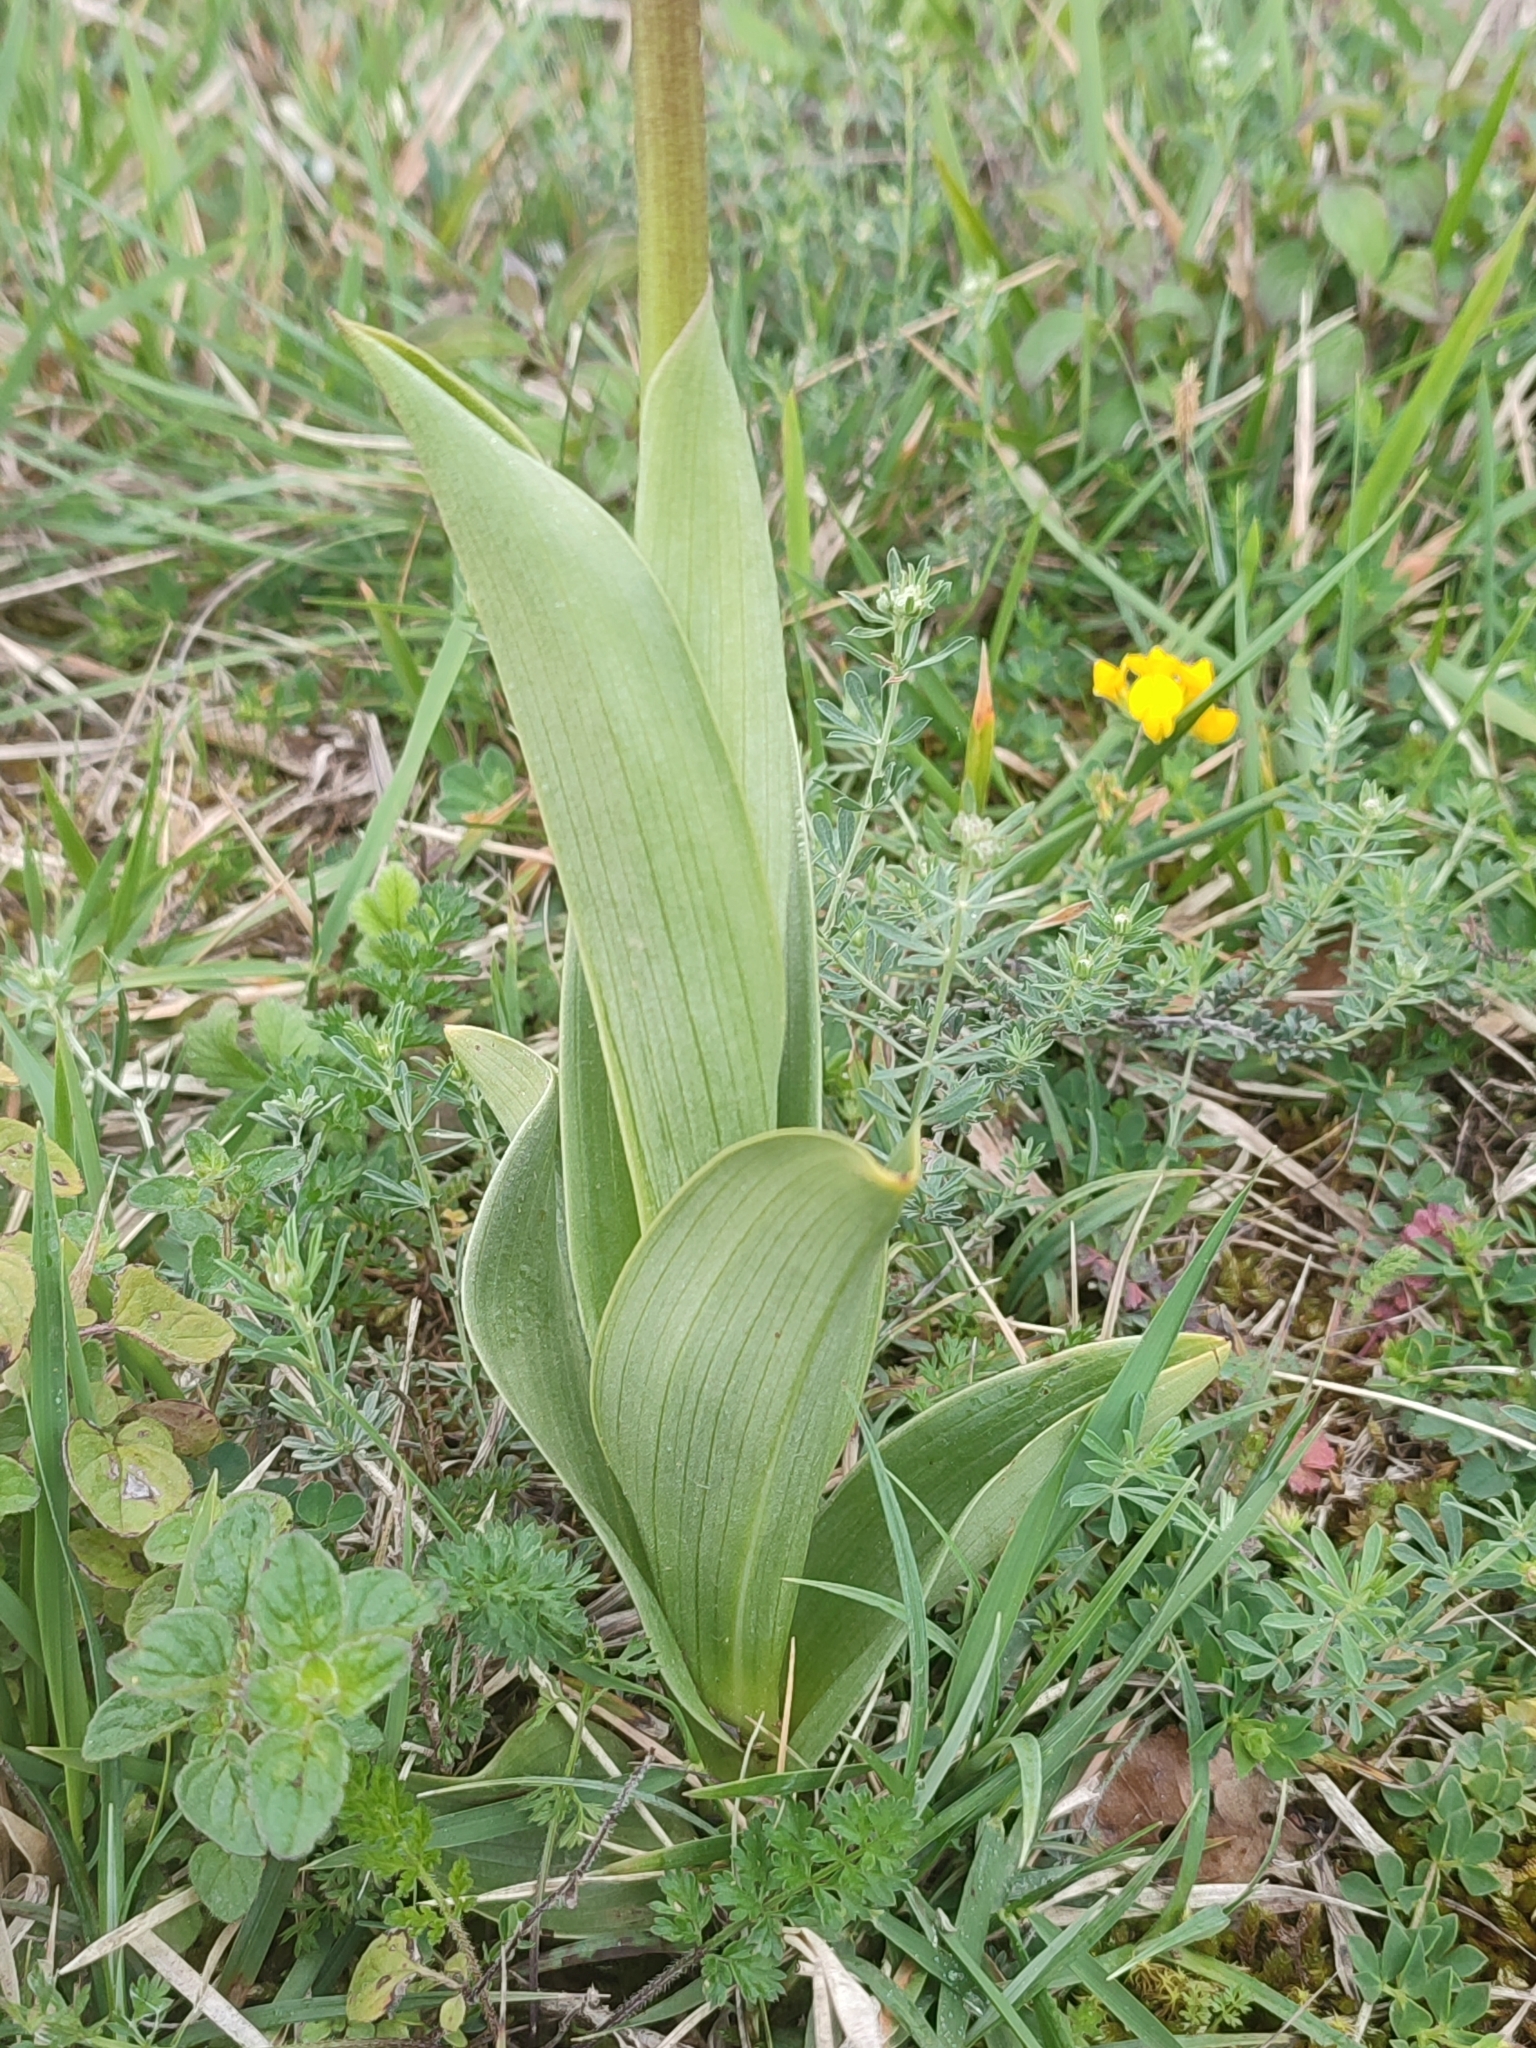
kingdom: Plantae
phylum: Tracheophyta
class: Liliopsida
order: Asparagales
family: Orchidaceae
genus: Orchis
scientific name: Orchis purpurea
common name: Lady orchid
